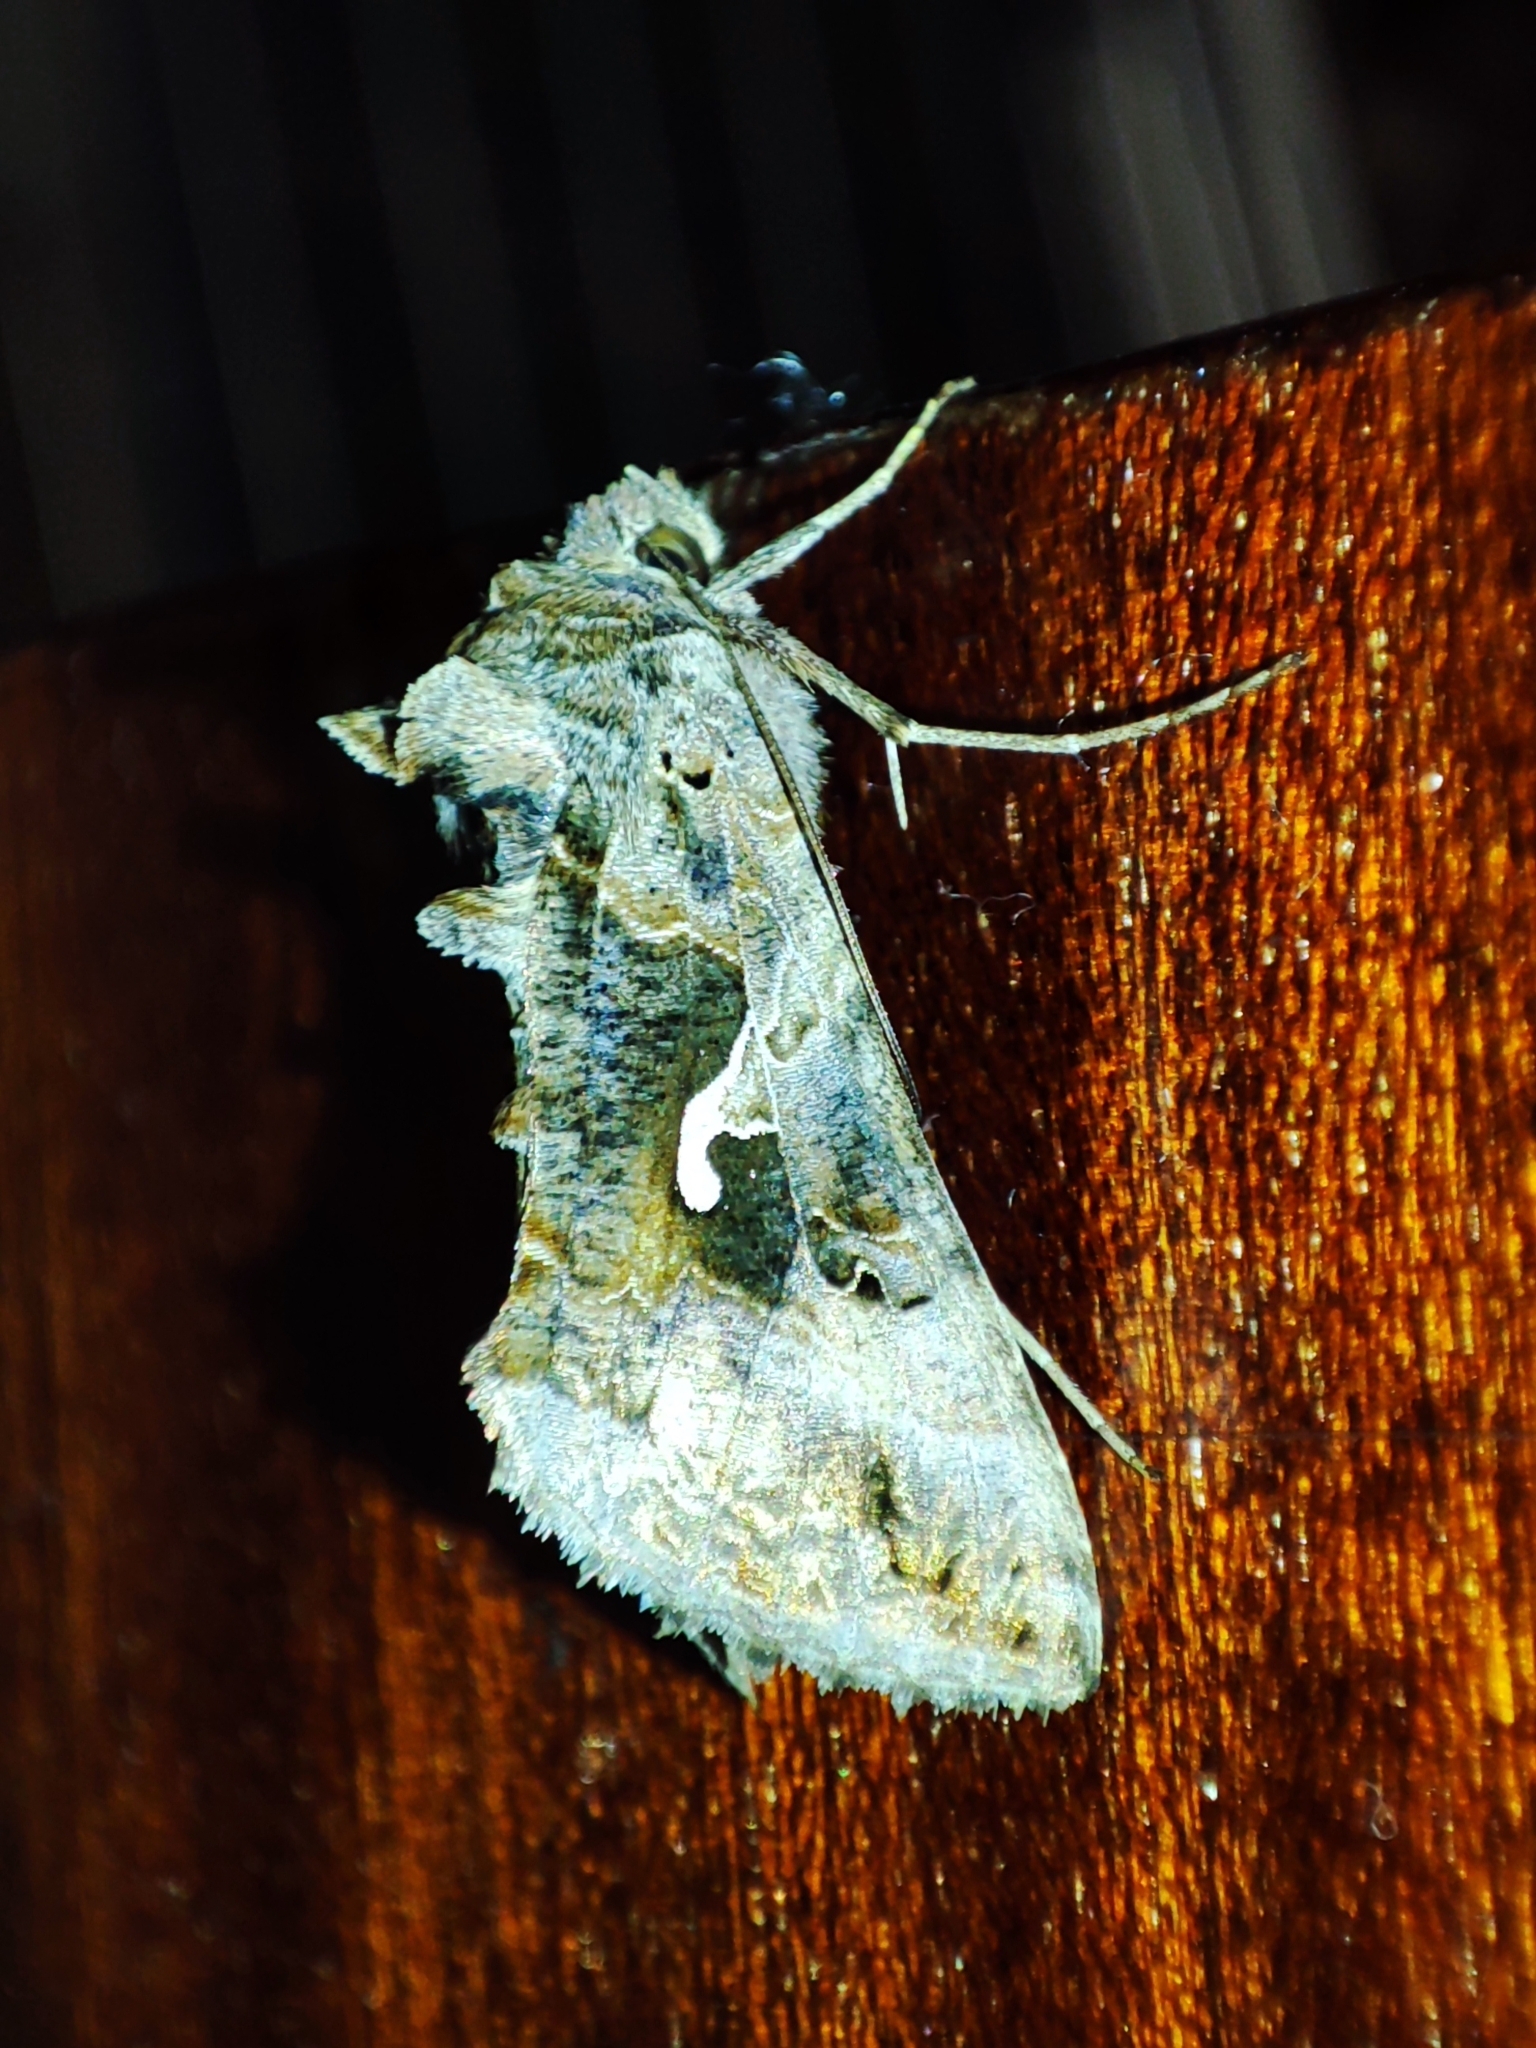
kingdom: Animalia
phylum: Arthropoda
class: Insecta
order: Lepidoptera
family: Noctuidae
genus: Autographa
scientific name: Autographa gamma
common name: Silver y
